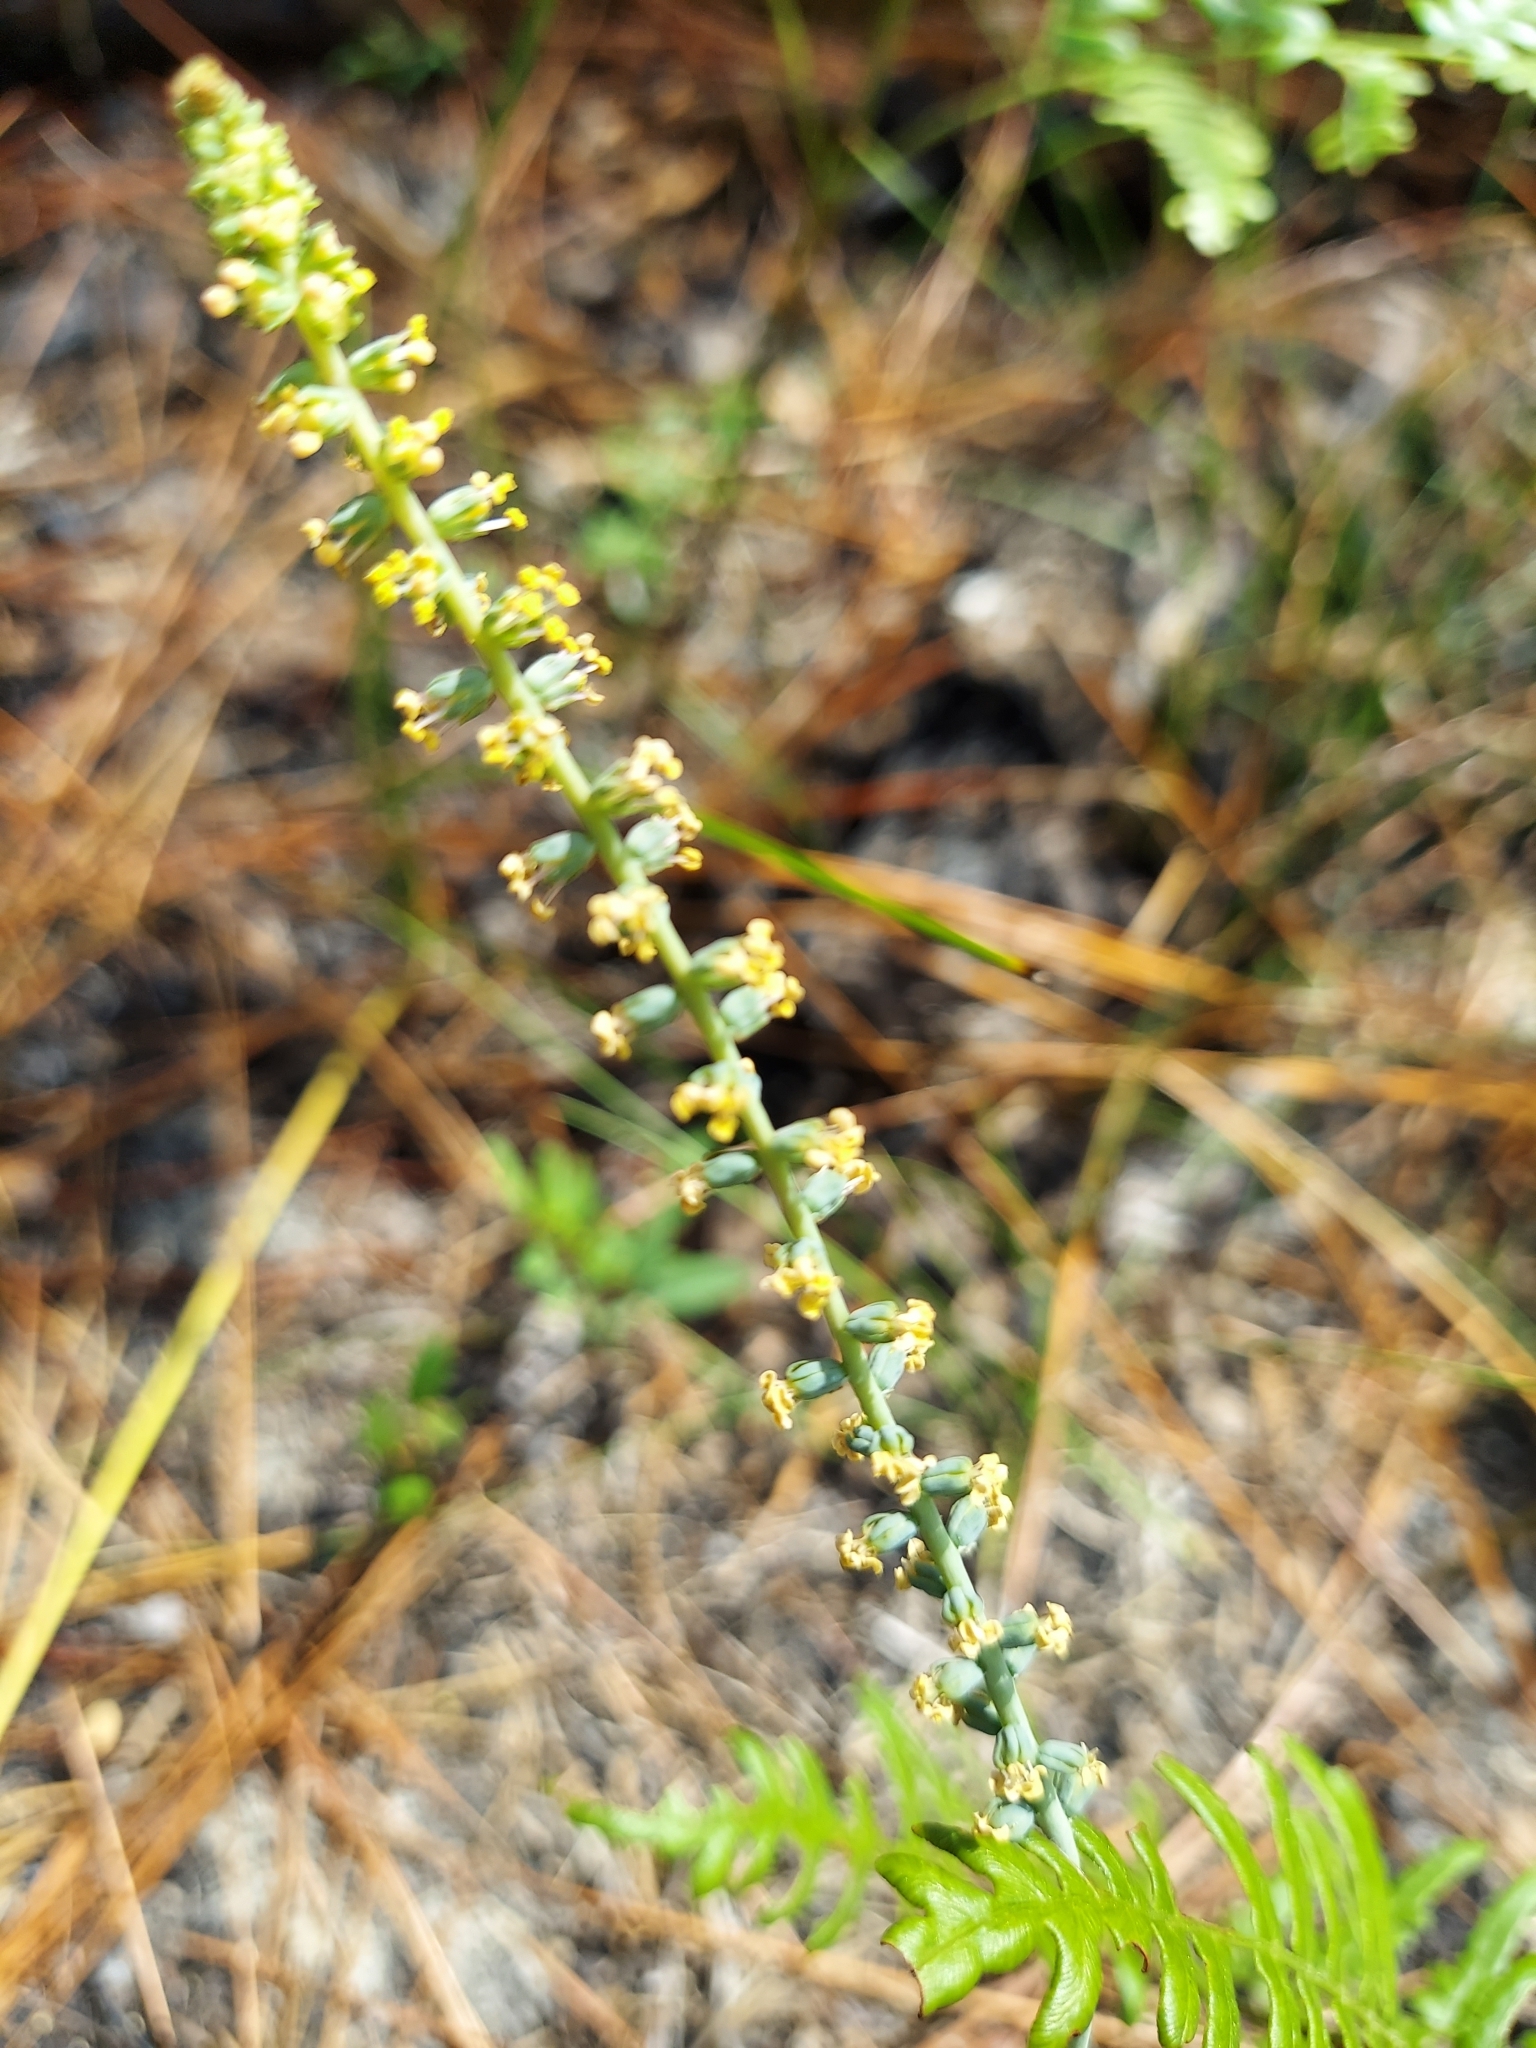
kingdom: Plantae
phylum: Tracheophyta
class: Liliopsida
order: Liliales
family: Melanthiaceae
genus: Schoenocaulon
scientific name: Schoenocaulon dubium
